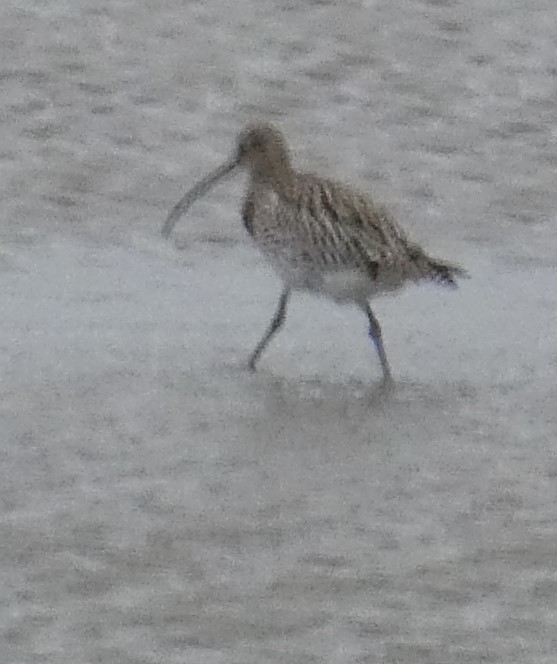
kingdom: Animalia
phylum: Chordata
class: Aves
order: Charadriiformes
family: Scolopacidae
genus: Numenius
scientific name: Numenius arquata
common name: Eurasian curlew
